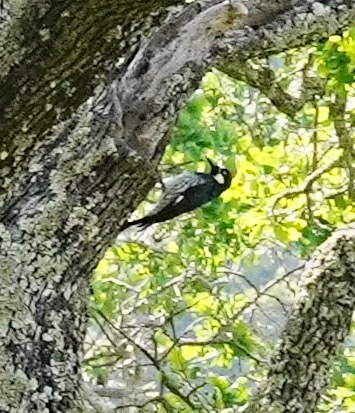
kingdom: Animalia
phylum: Chordata
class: Aves
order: Piciformes
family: Picidae
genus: Melanerpes
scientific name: Melanerpes formicivorus
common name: Acorn woodpecker
